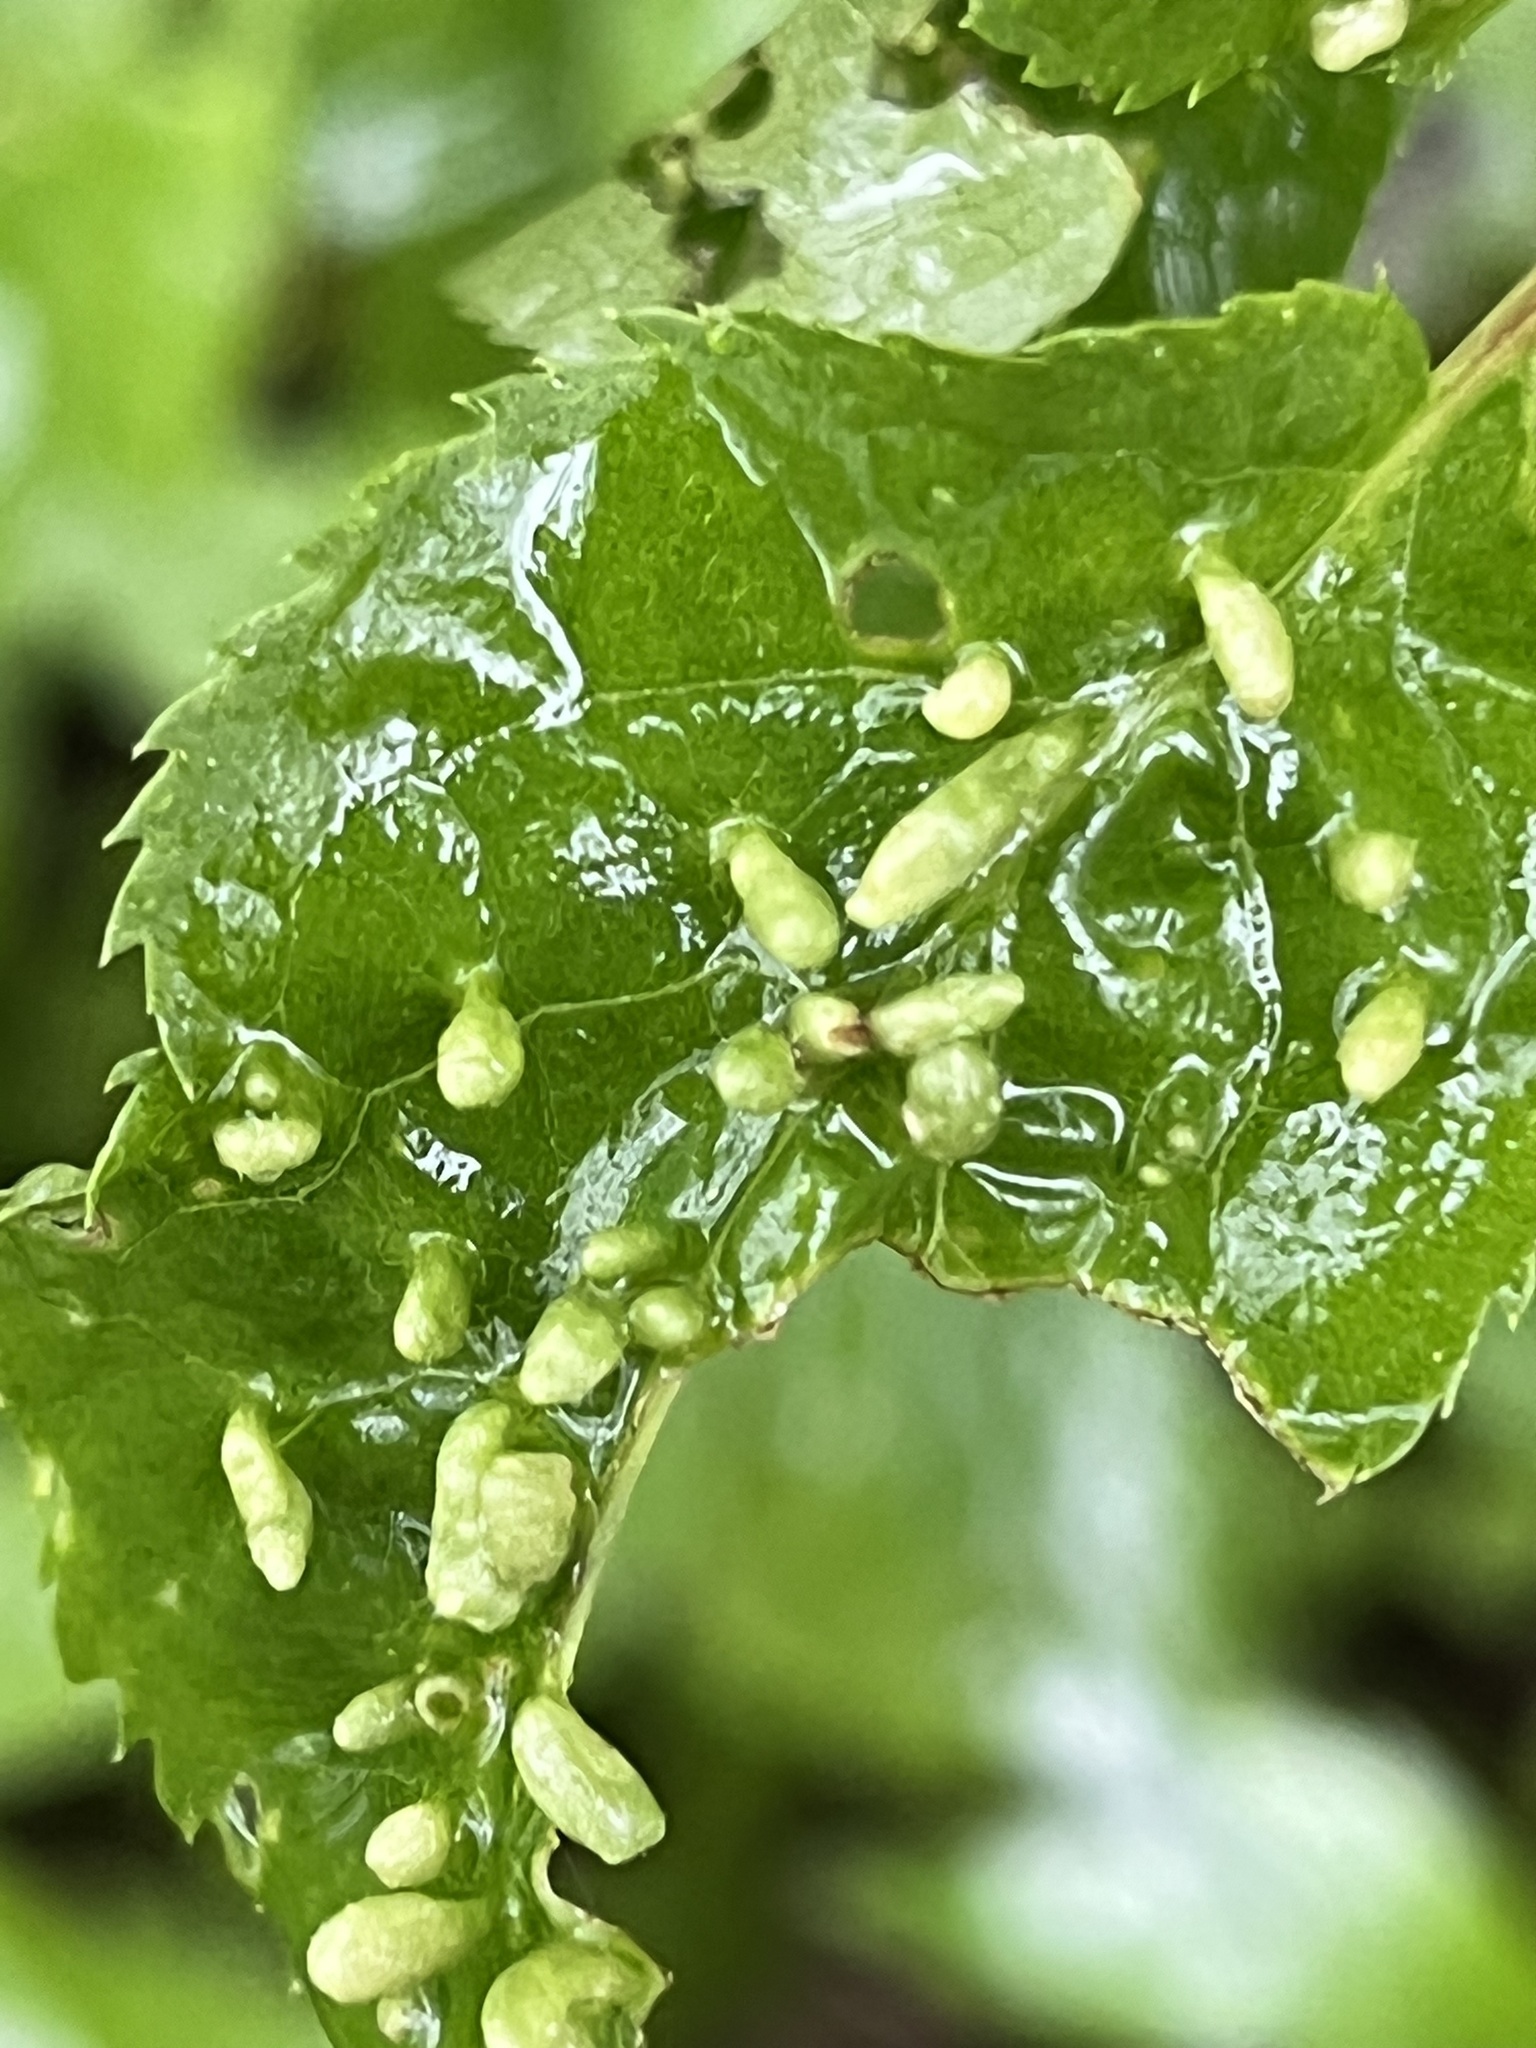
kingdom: Animalia
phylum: Arthropoda
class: Arachnida
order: Trombidiformes
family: Eriophyidae
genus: Eriophyes
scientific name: Eriophyes emarginatae
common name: Plum leaf gall mite
